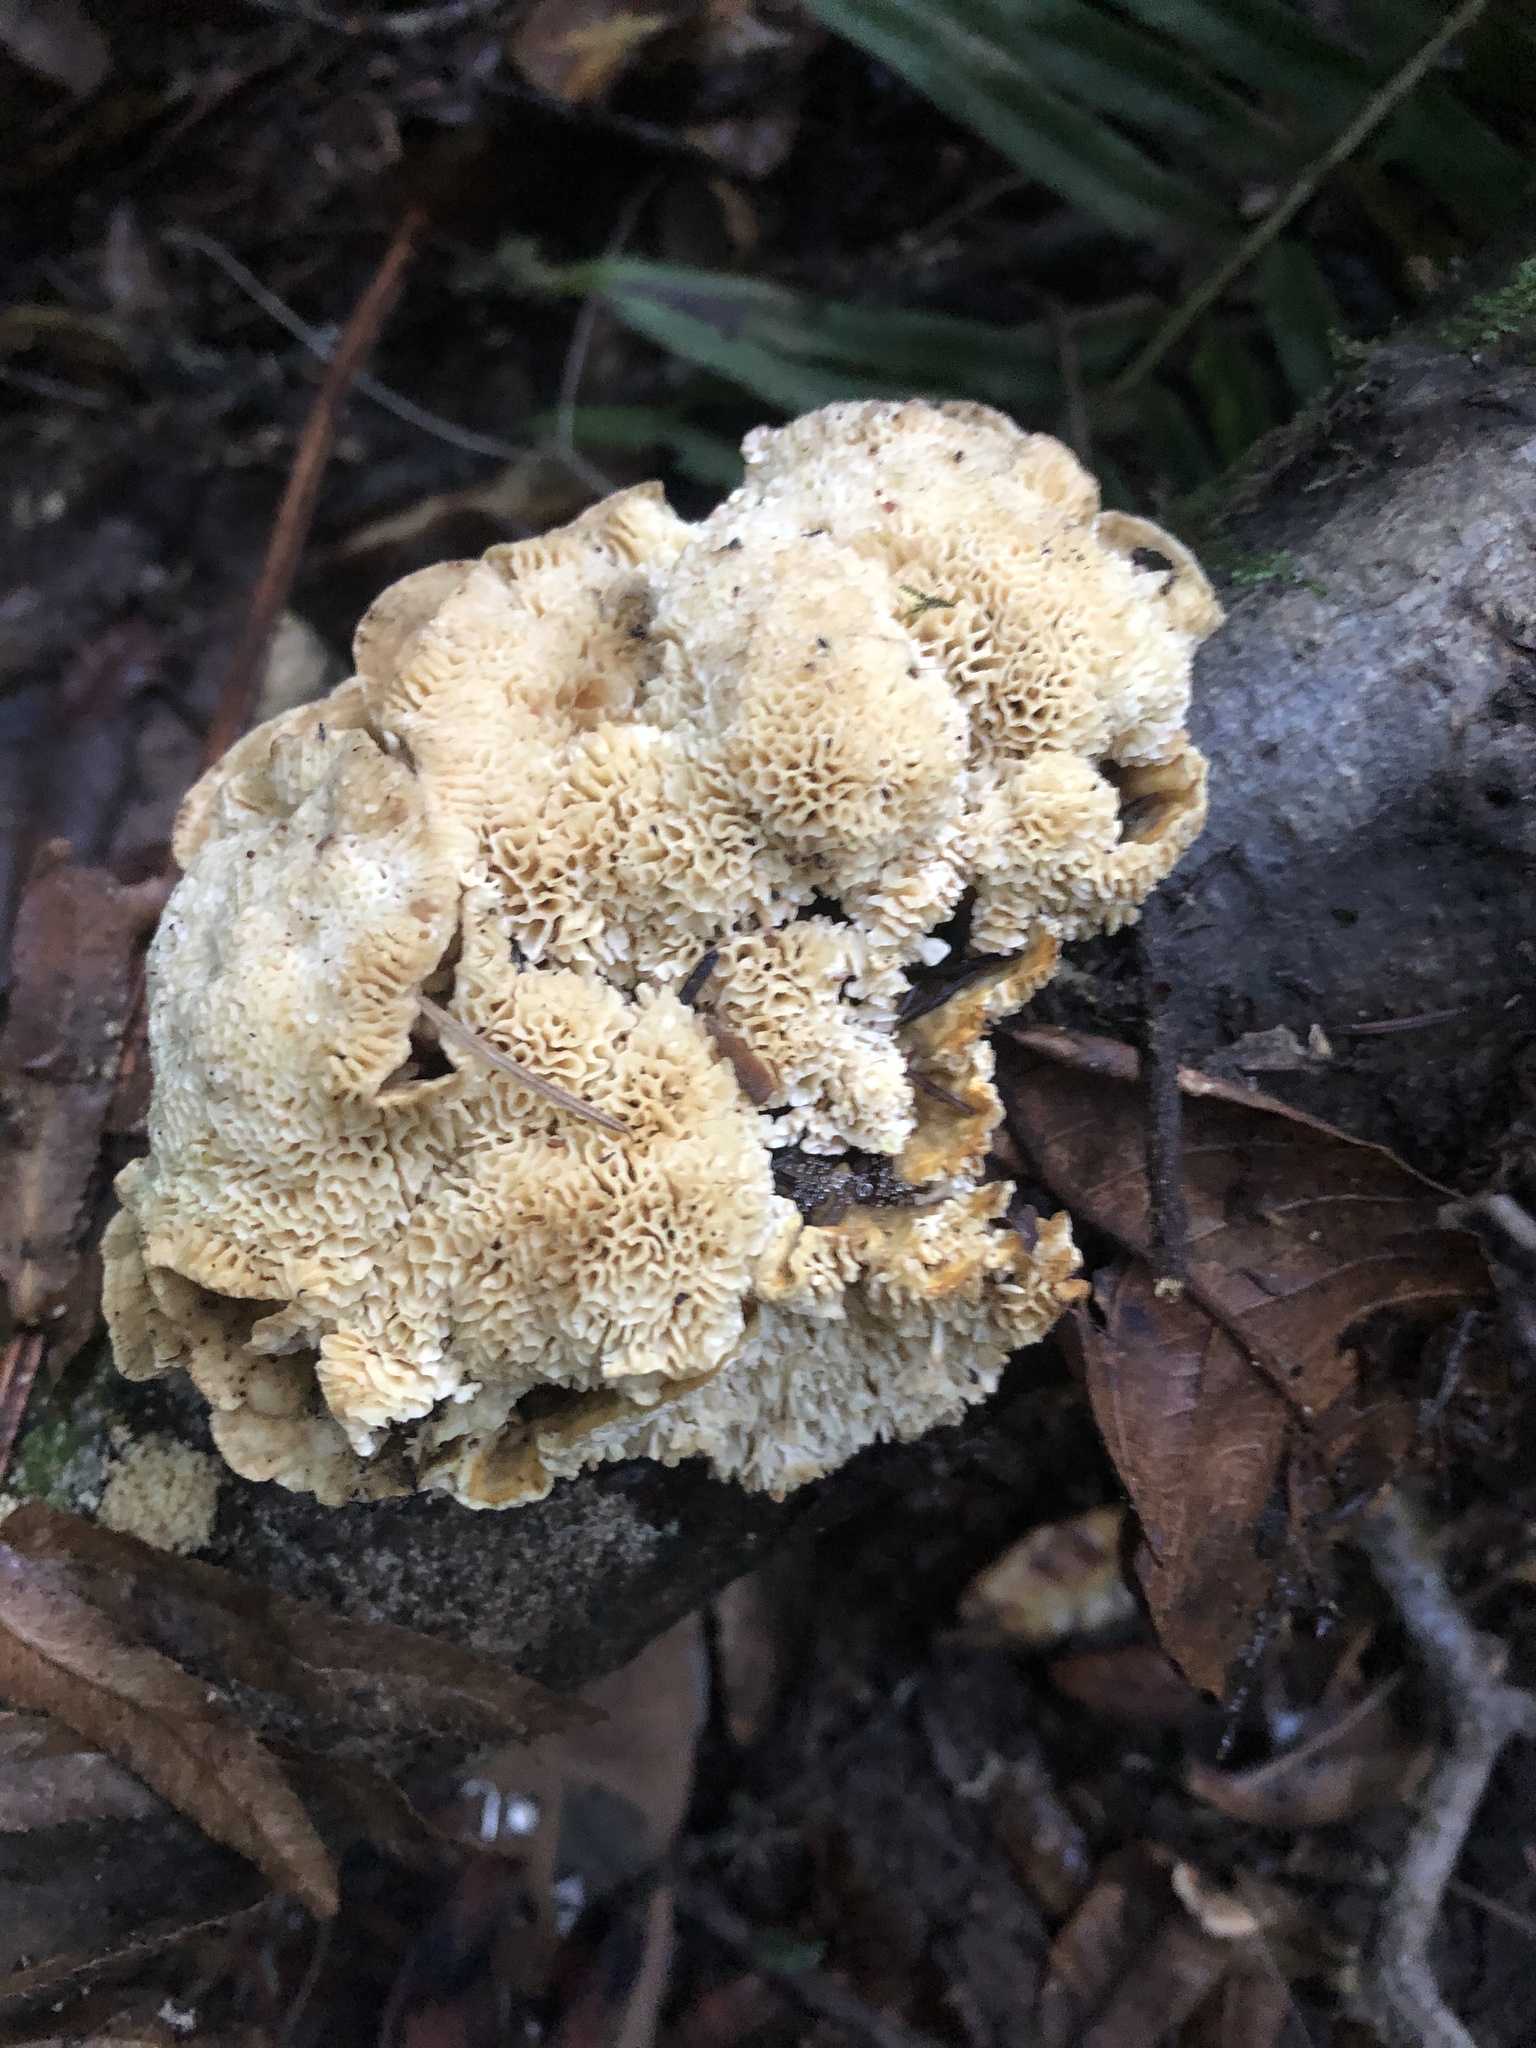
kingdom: Fungi
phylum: Basidiomycota
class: Agaricomycetes
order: Polyporales
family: Podoscyphaceae
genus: Abortiporus
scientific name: Abortiporus biennis
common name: Blushing rosette
